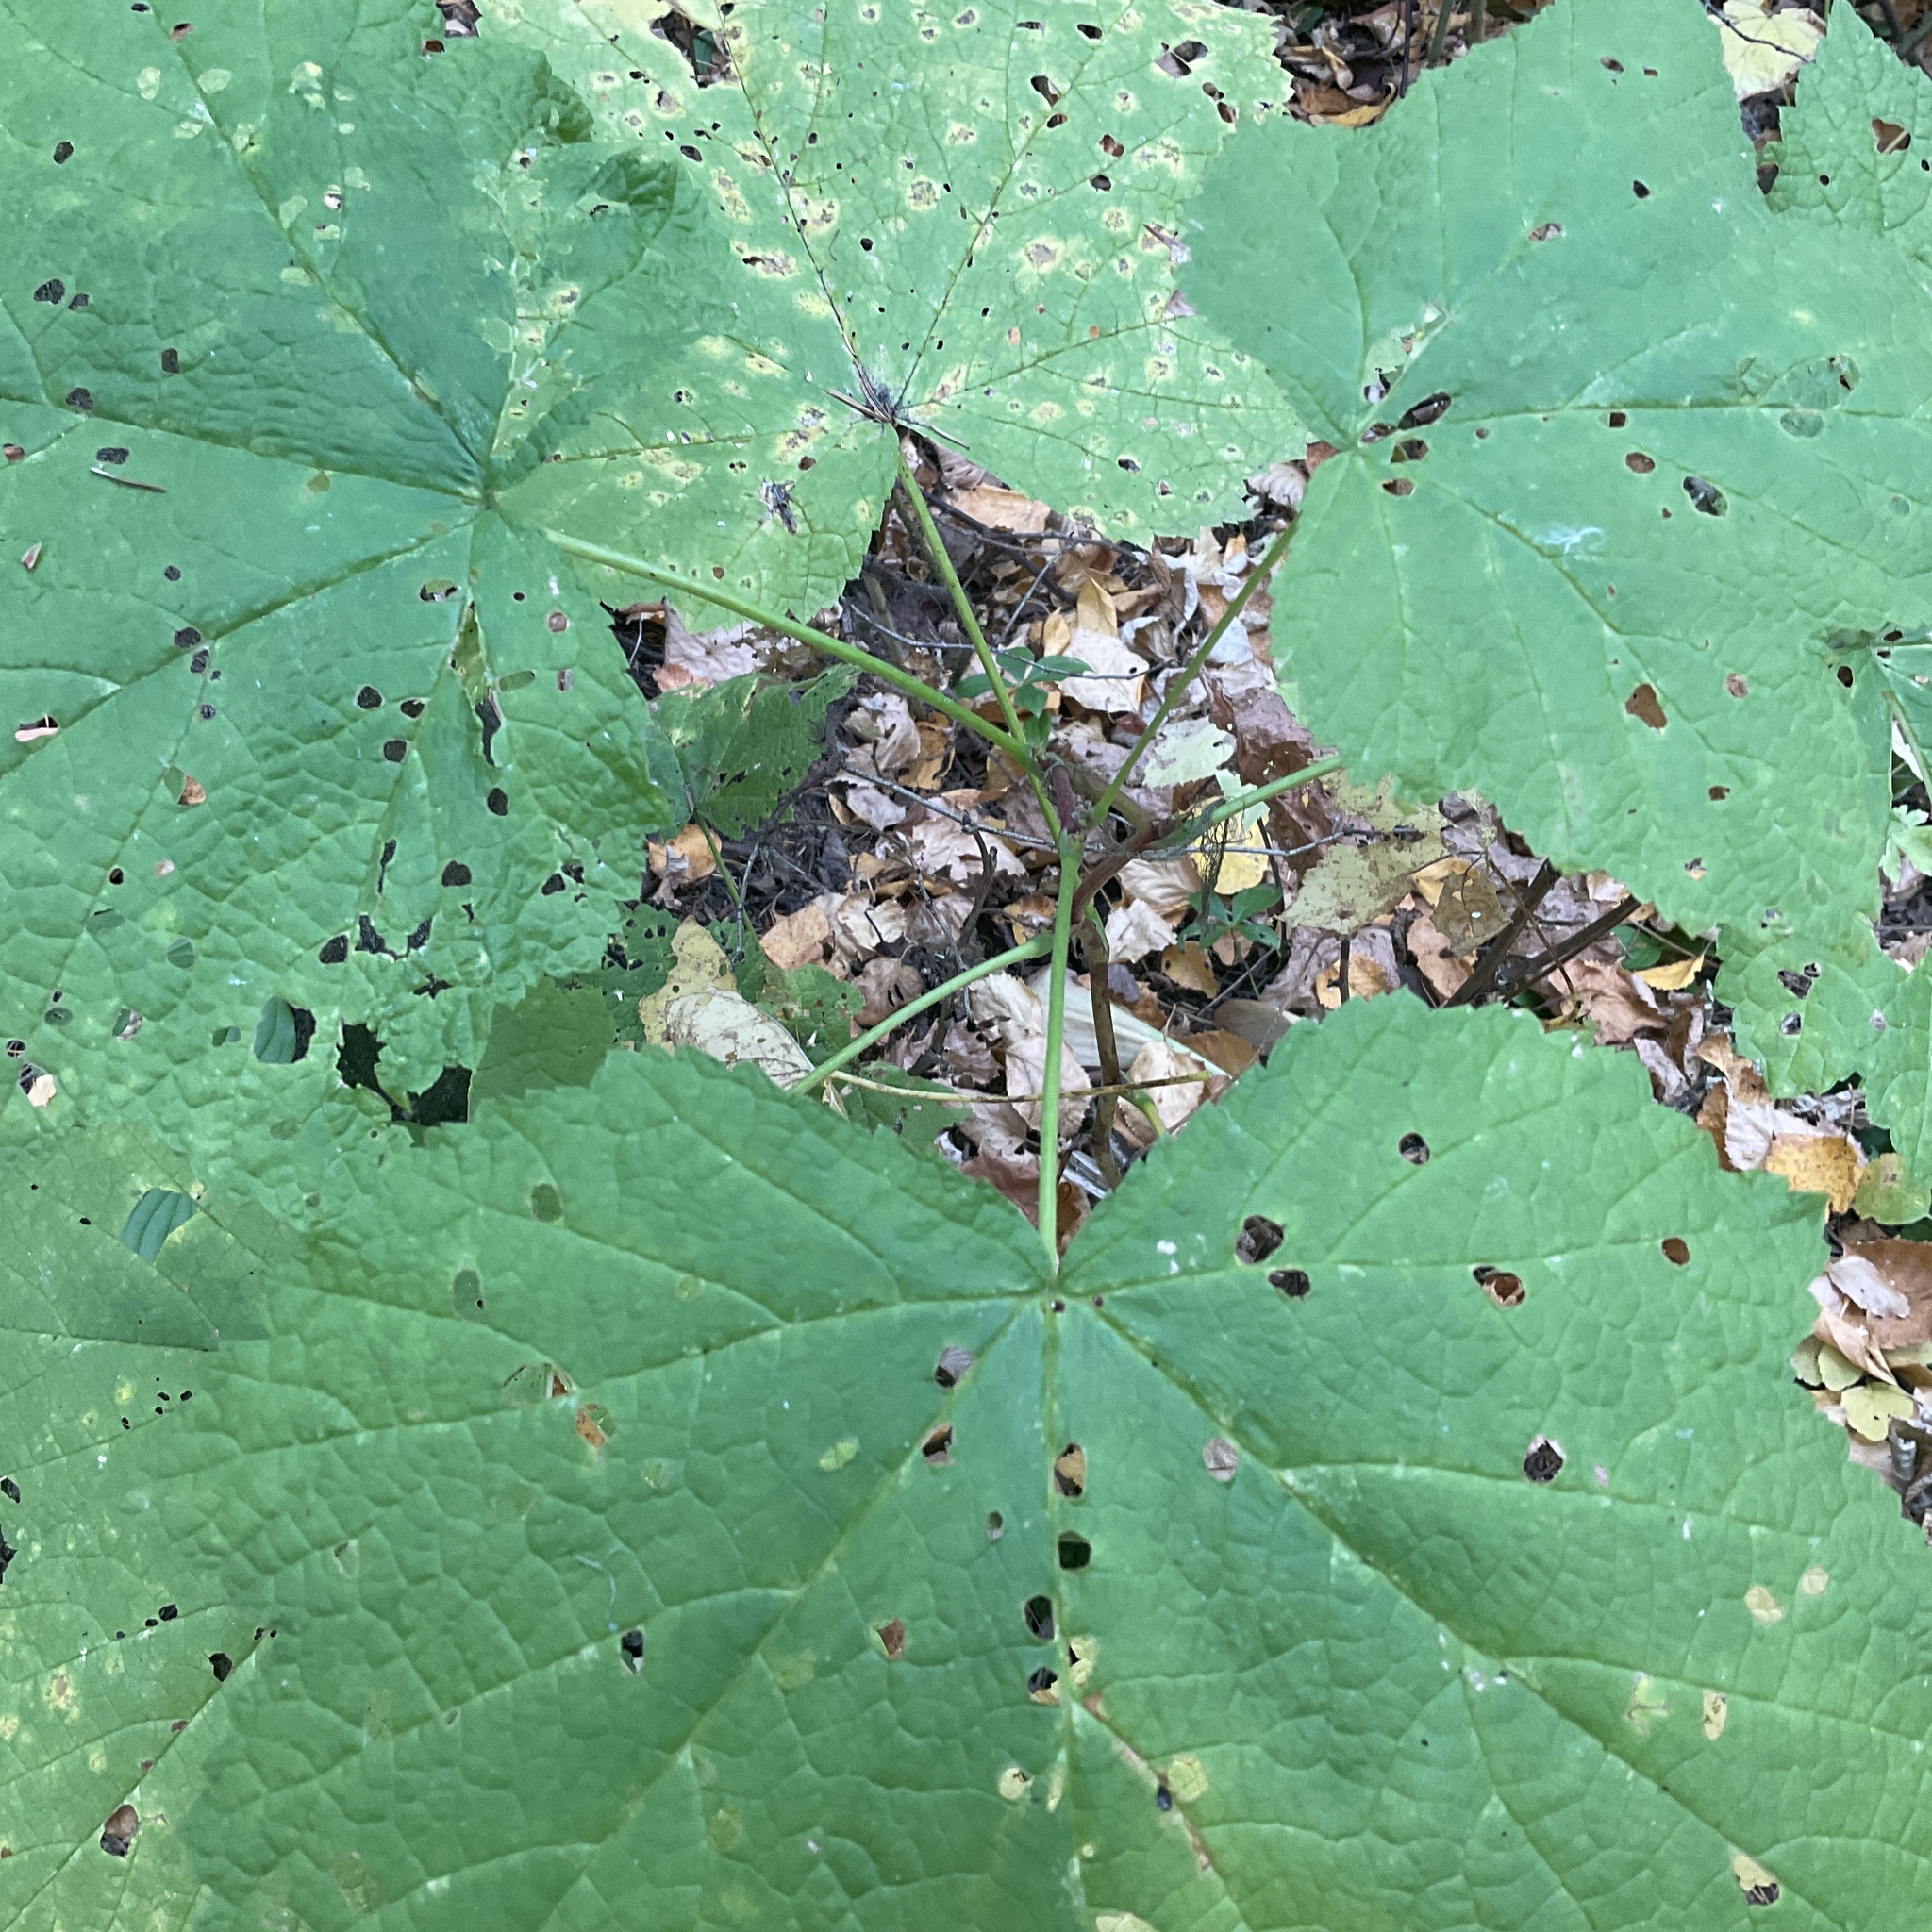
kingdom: Plantae
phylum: Tracheophyta
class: Magnoliopsida
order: Rosales
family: Rosaceae
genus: Rubus
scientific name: Rubus parviflorus
